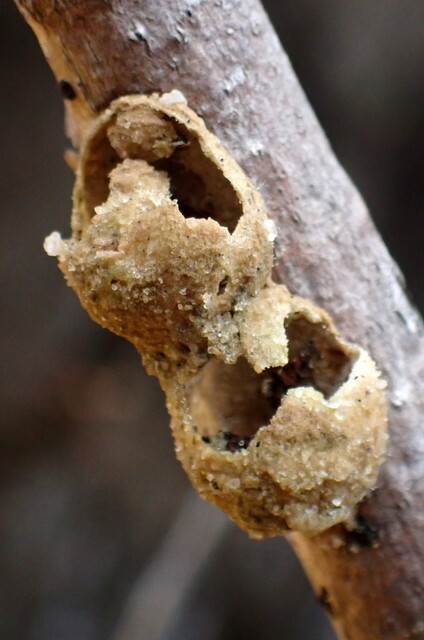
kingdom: Animalia
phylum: Arthropoda
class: Insecta
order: Hymenoptera
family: Vespidae
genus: Eumenes
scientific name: Eumenes
